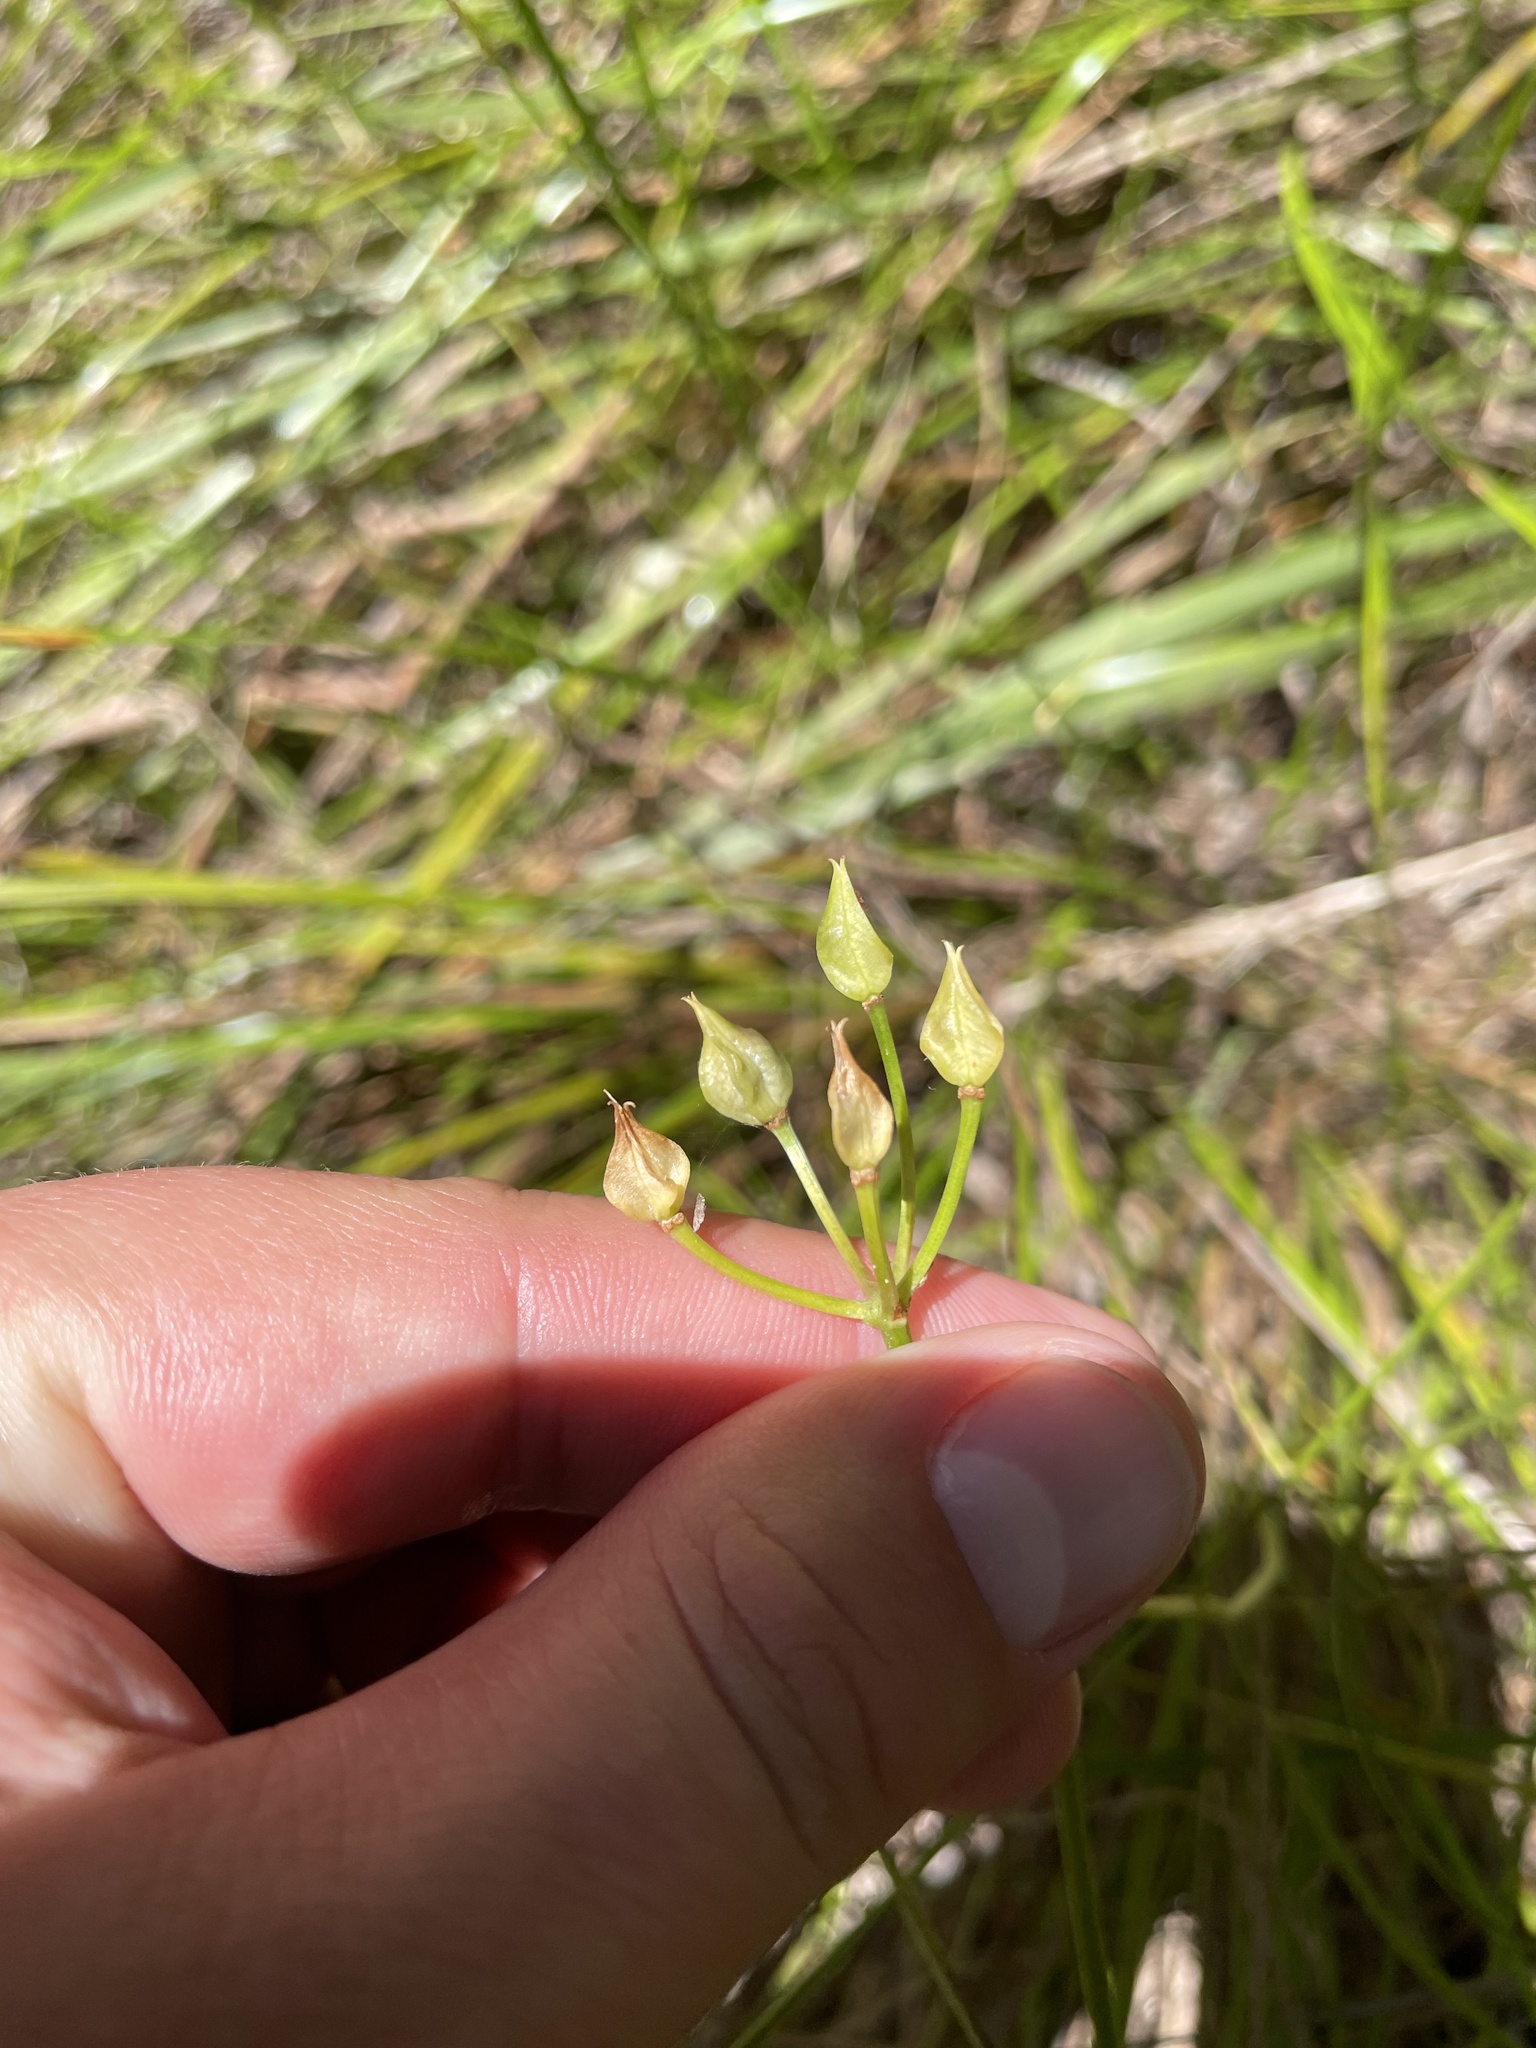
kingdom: Plantae
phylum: Tracheophyta
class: Liliopsida
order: Liliales
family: Colchicaceae
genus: Burchardia
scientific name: Burchardia umbellata
